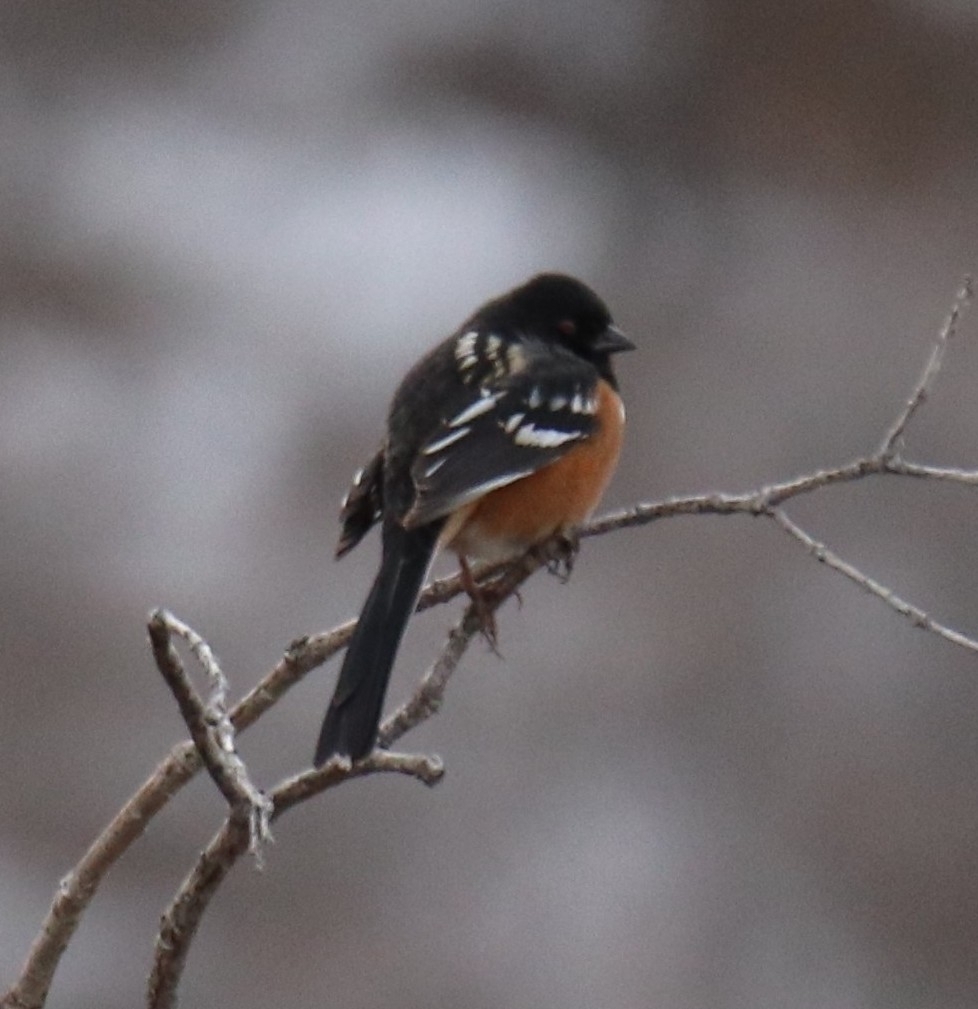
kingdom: Animalia
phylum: Chordata
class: Aves
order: Passeriformes
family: Passerellidae
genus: Pipilo
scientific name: Pipilo maculatus
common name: Spotted towhee
